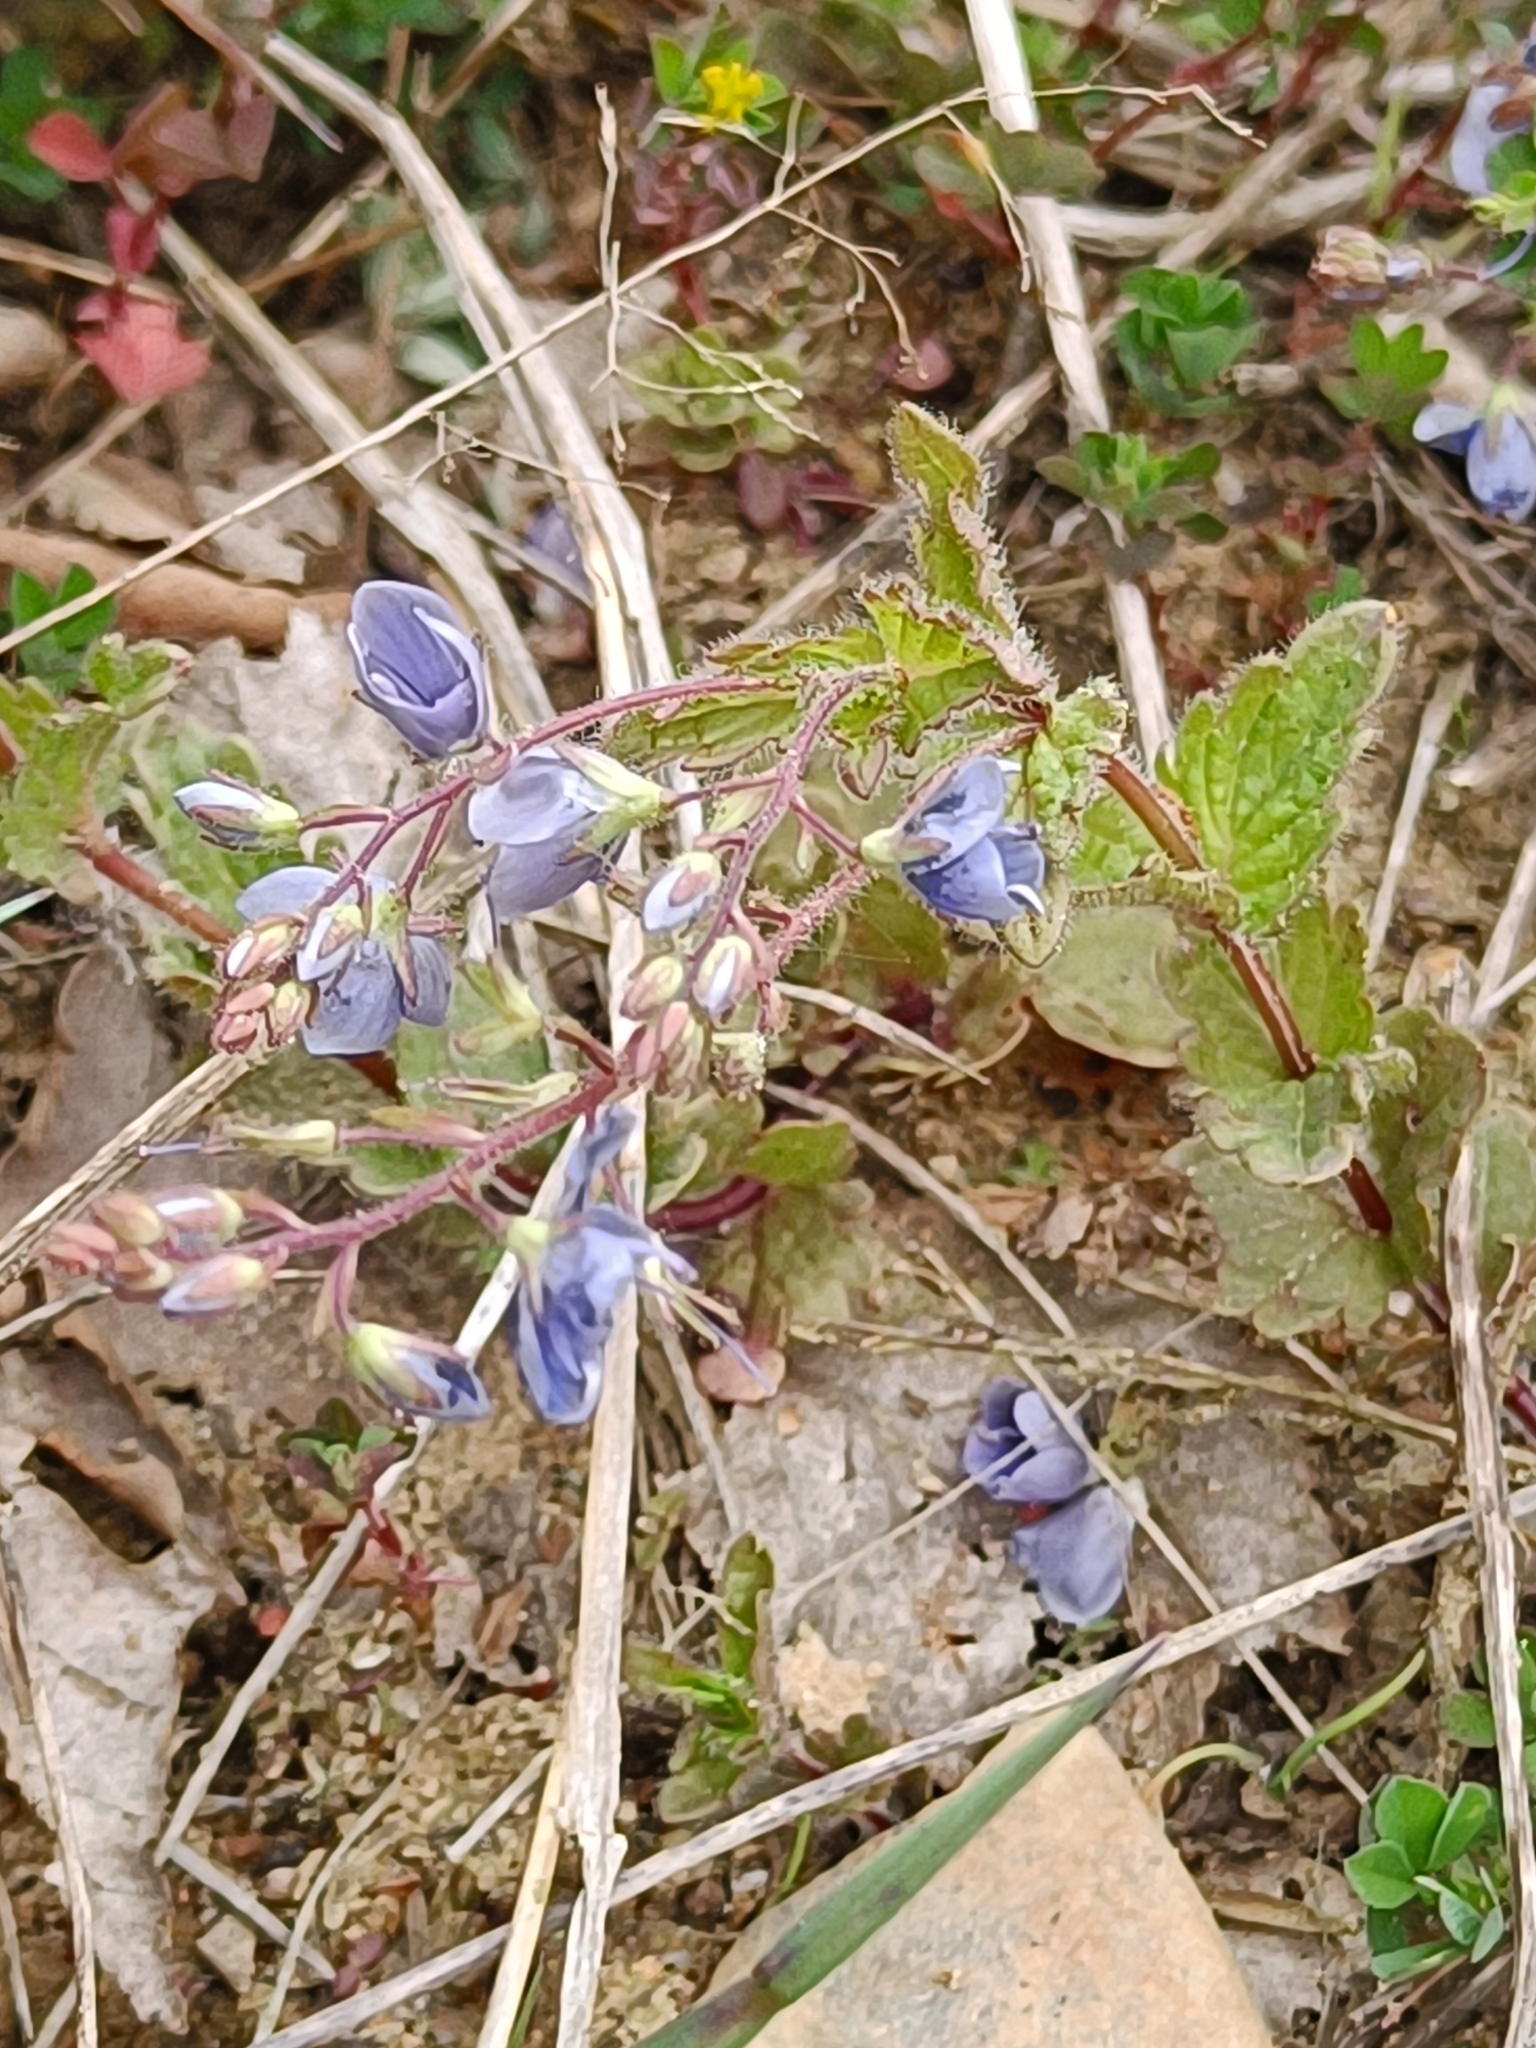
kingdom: Plantae
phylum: Tracheophyta
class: Magnoliopsida
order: Lamiales
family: Plantaginaceae
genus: Veronica
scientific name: Veronica chamaedrys
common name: Germander speedwell
